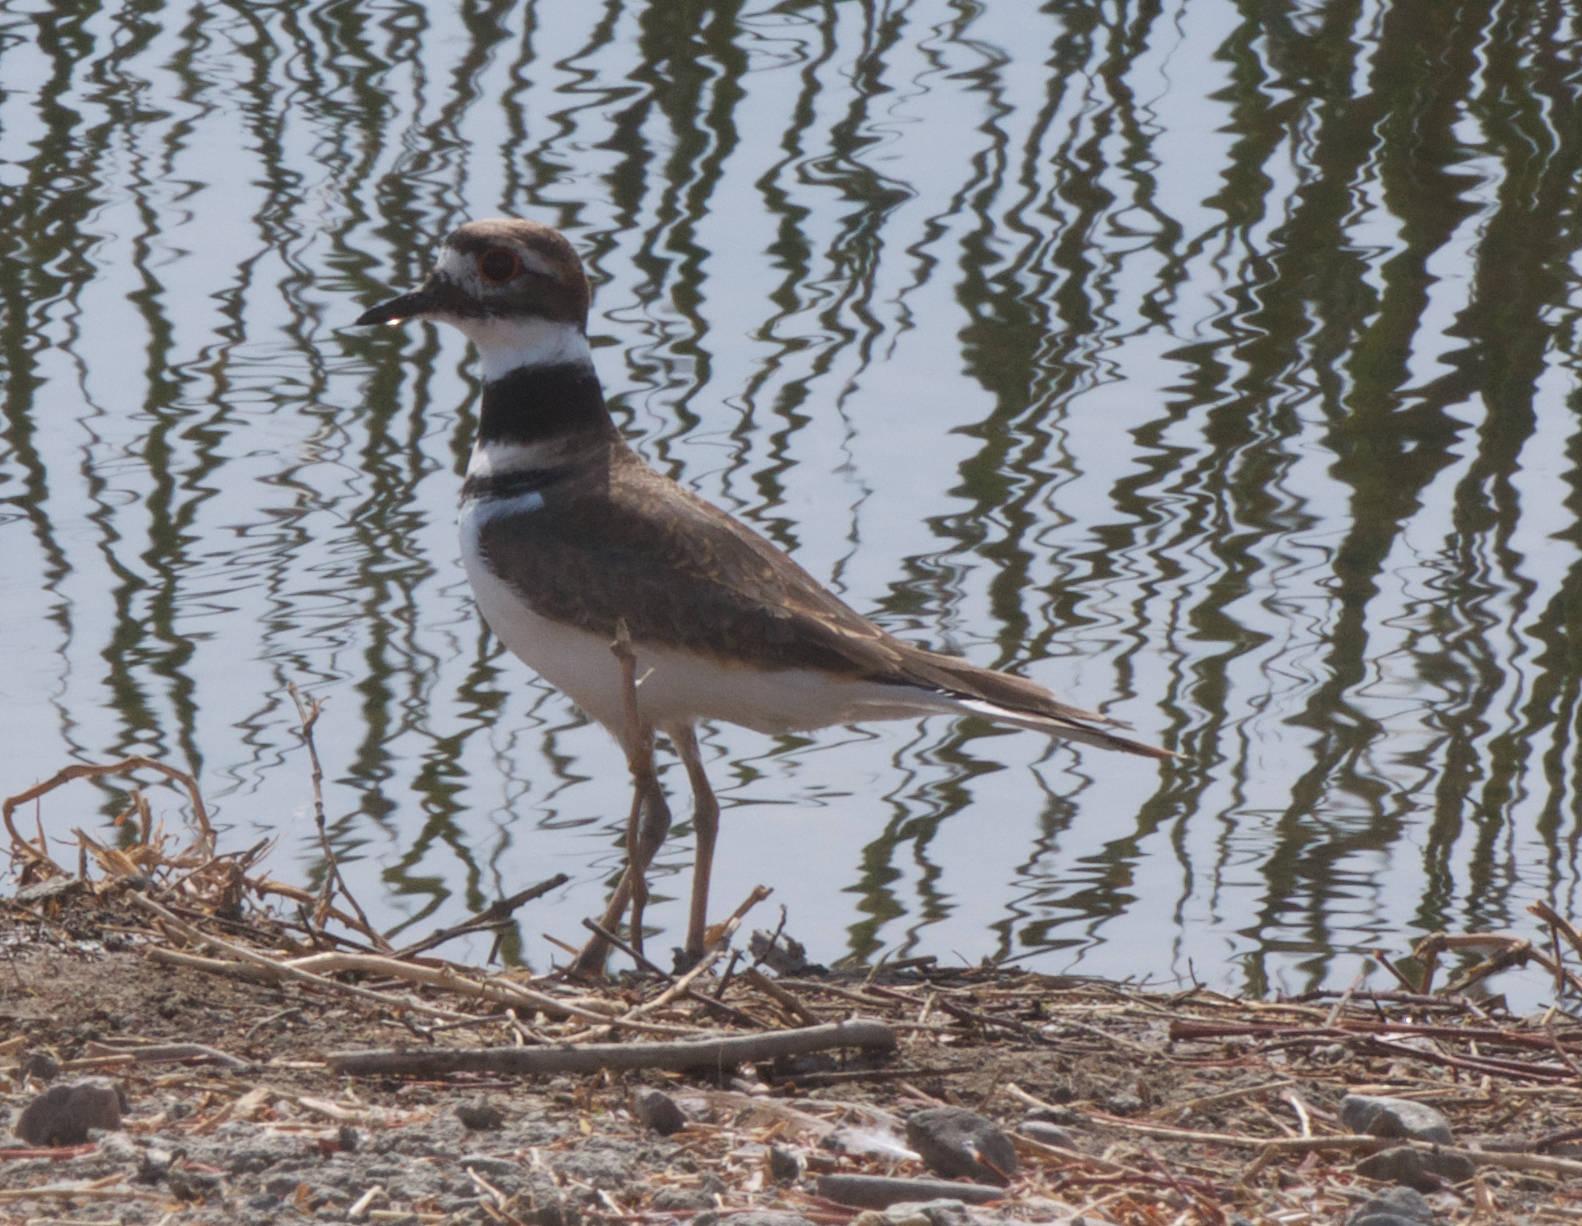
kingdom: Animalia
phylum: Chordata
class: Aves
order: Charadriiformes
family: Charadriidae
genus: Charadrius
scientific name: Charadrius vociferus
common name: Killdeer
